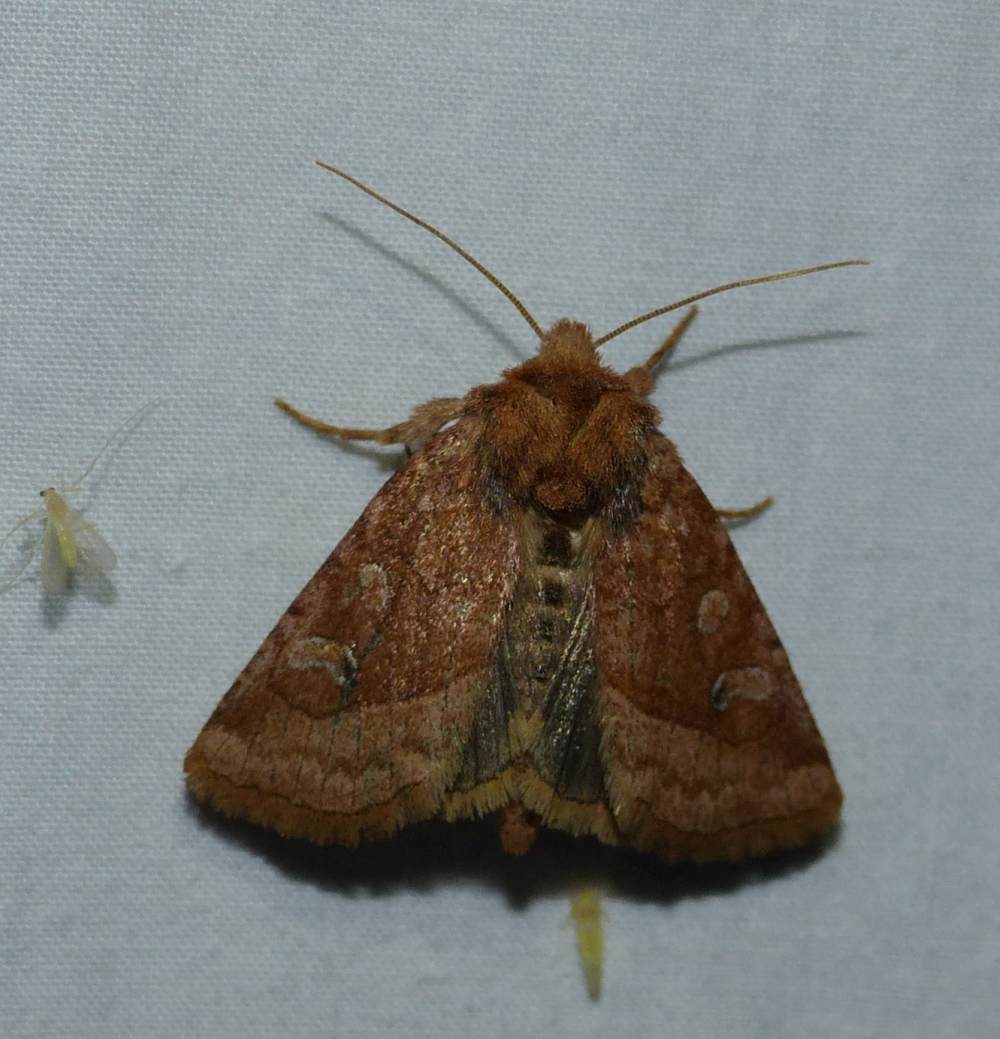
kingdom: Animalia
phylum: Arthropoda
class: Insecta
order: Lepidoptera
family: Noctuidae
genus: Lacinipolia
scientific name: Lacinipolia lorea
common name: Bridled arches moth
